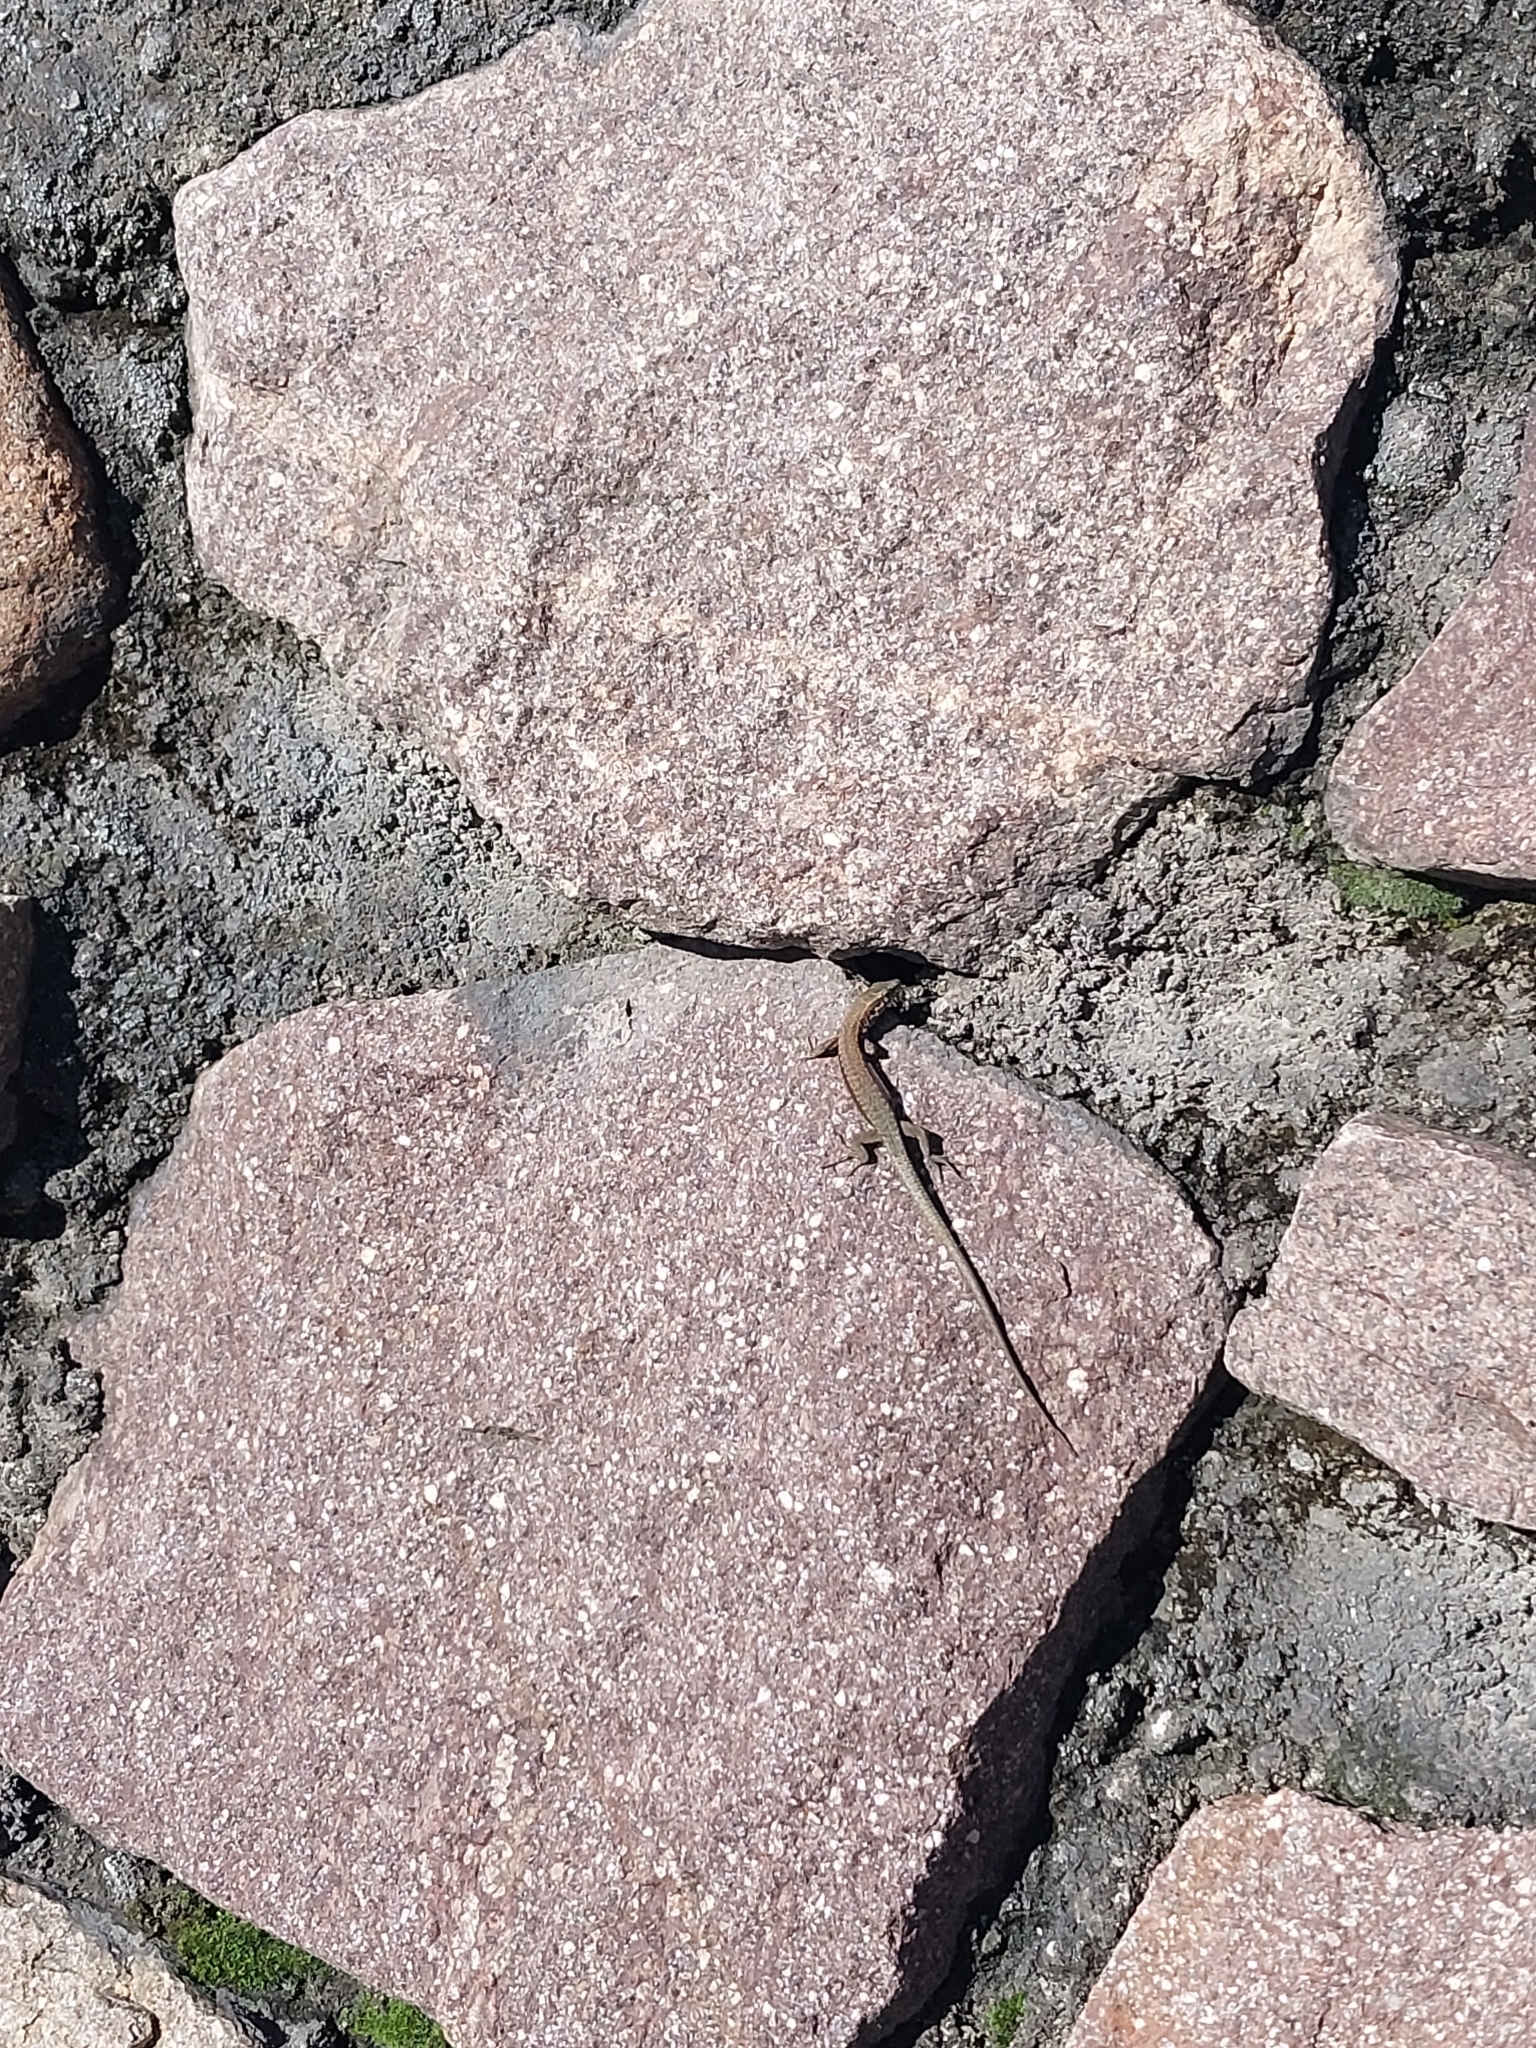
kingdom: Animalia
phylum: Chordata
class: Squamata
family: Lacertidae
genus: Podarcis
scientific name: Podarcis muralis
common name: Common wall lizard
